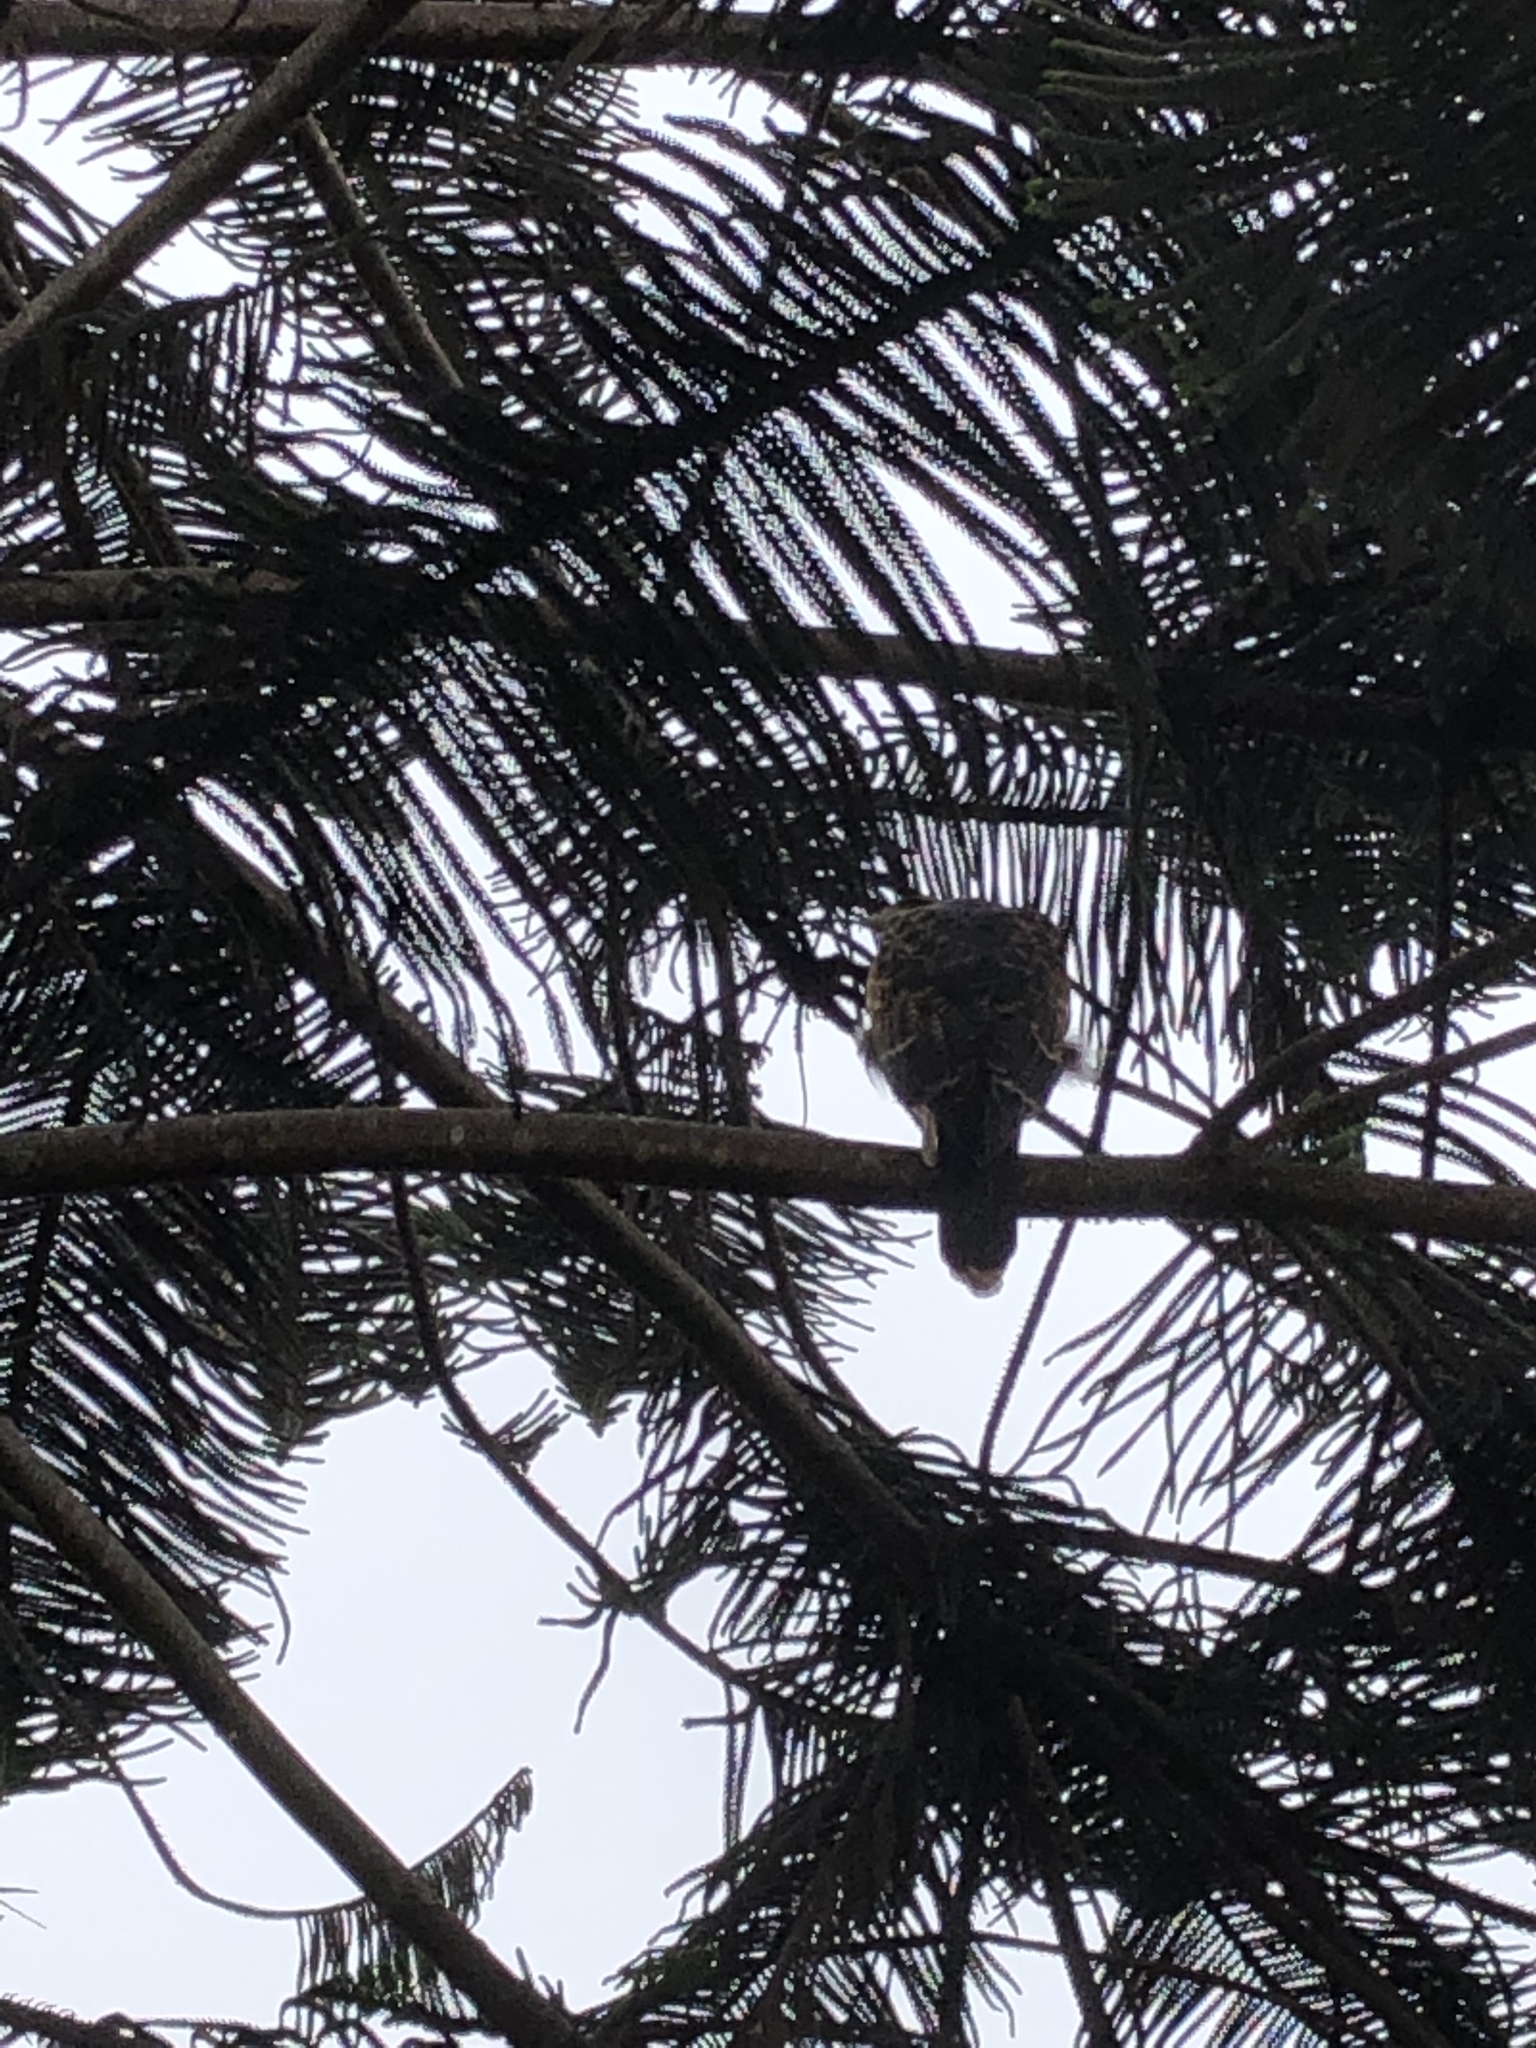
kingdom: Animalia
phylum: Chordata
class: Aves
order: Accipitriformes
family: Accipitridae
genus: Parabuteo
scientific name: Parabuteo unicinctus
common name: Harris's hawk
